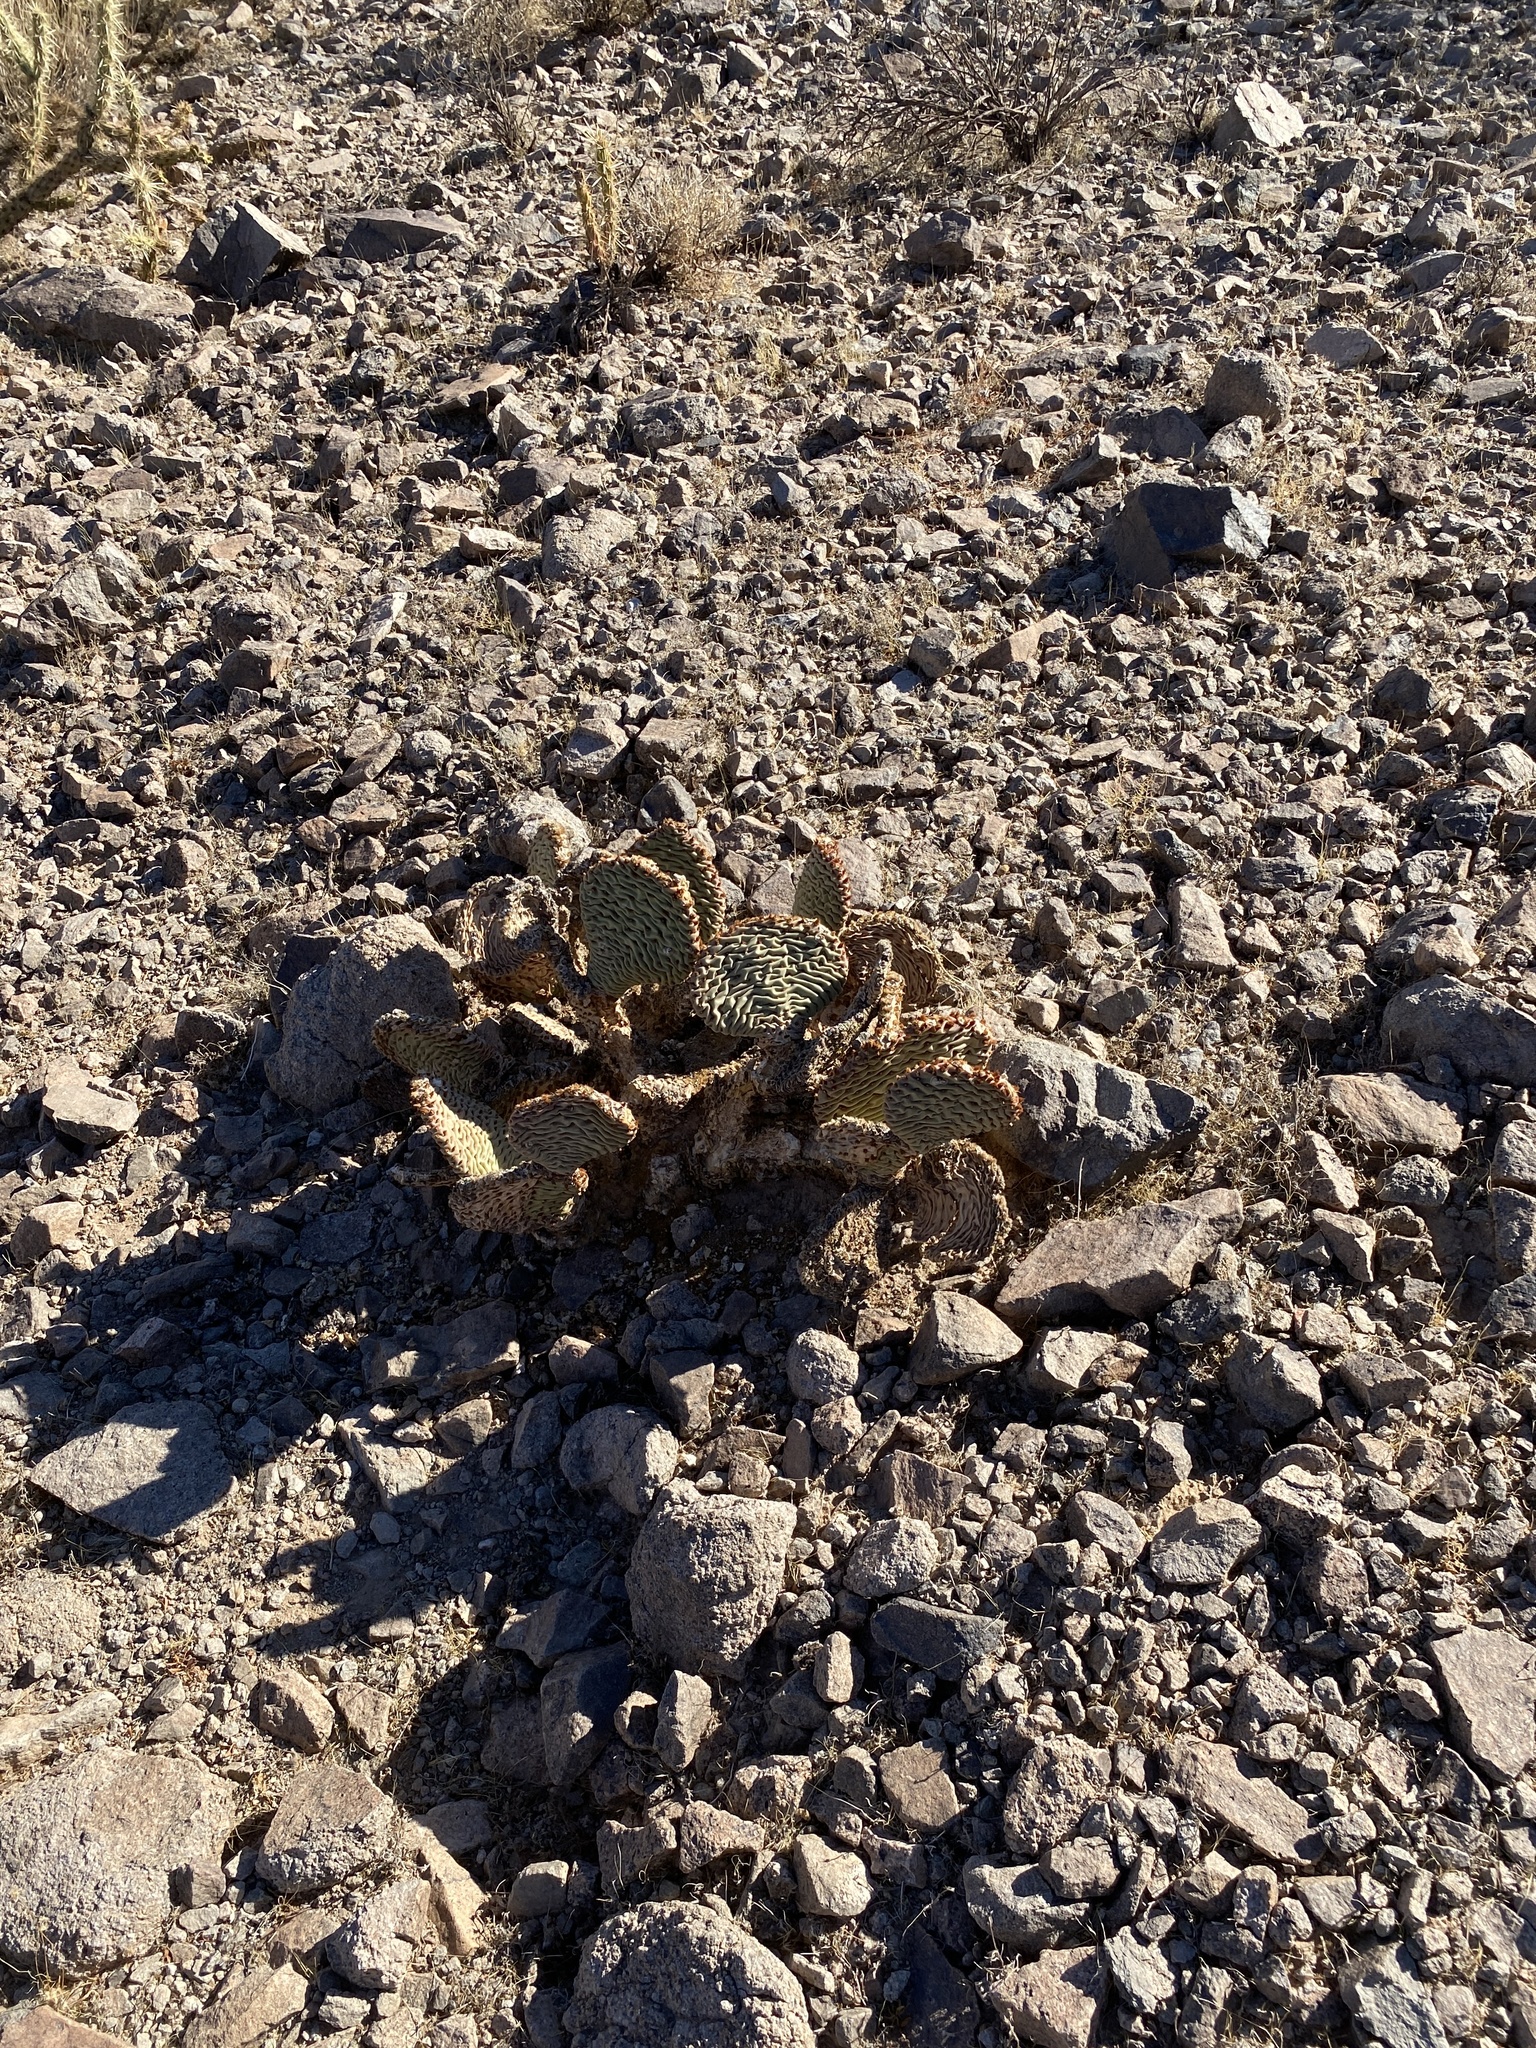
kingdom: Plantae
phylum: Tracheophyta
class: Magnoliopsida
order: Caryophyllales
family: Cactaceae
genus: Opuntia
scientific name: Opuntia basilaris
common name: Beavertail prickly-pear
